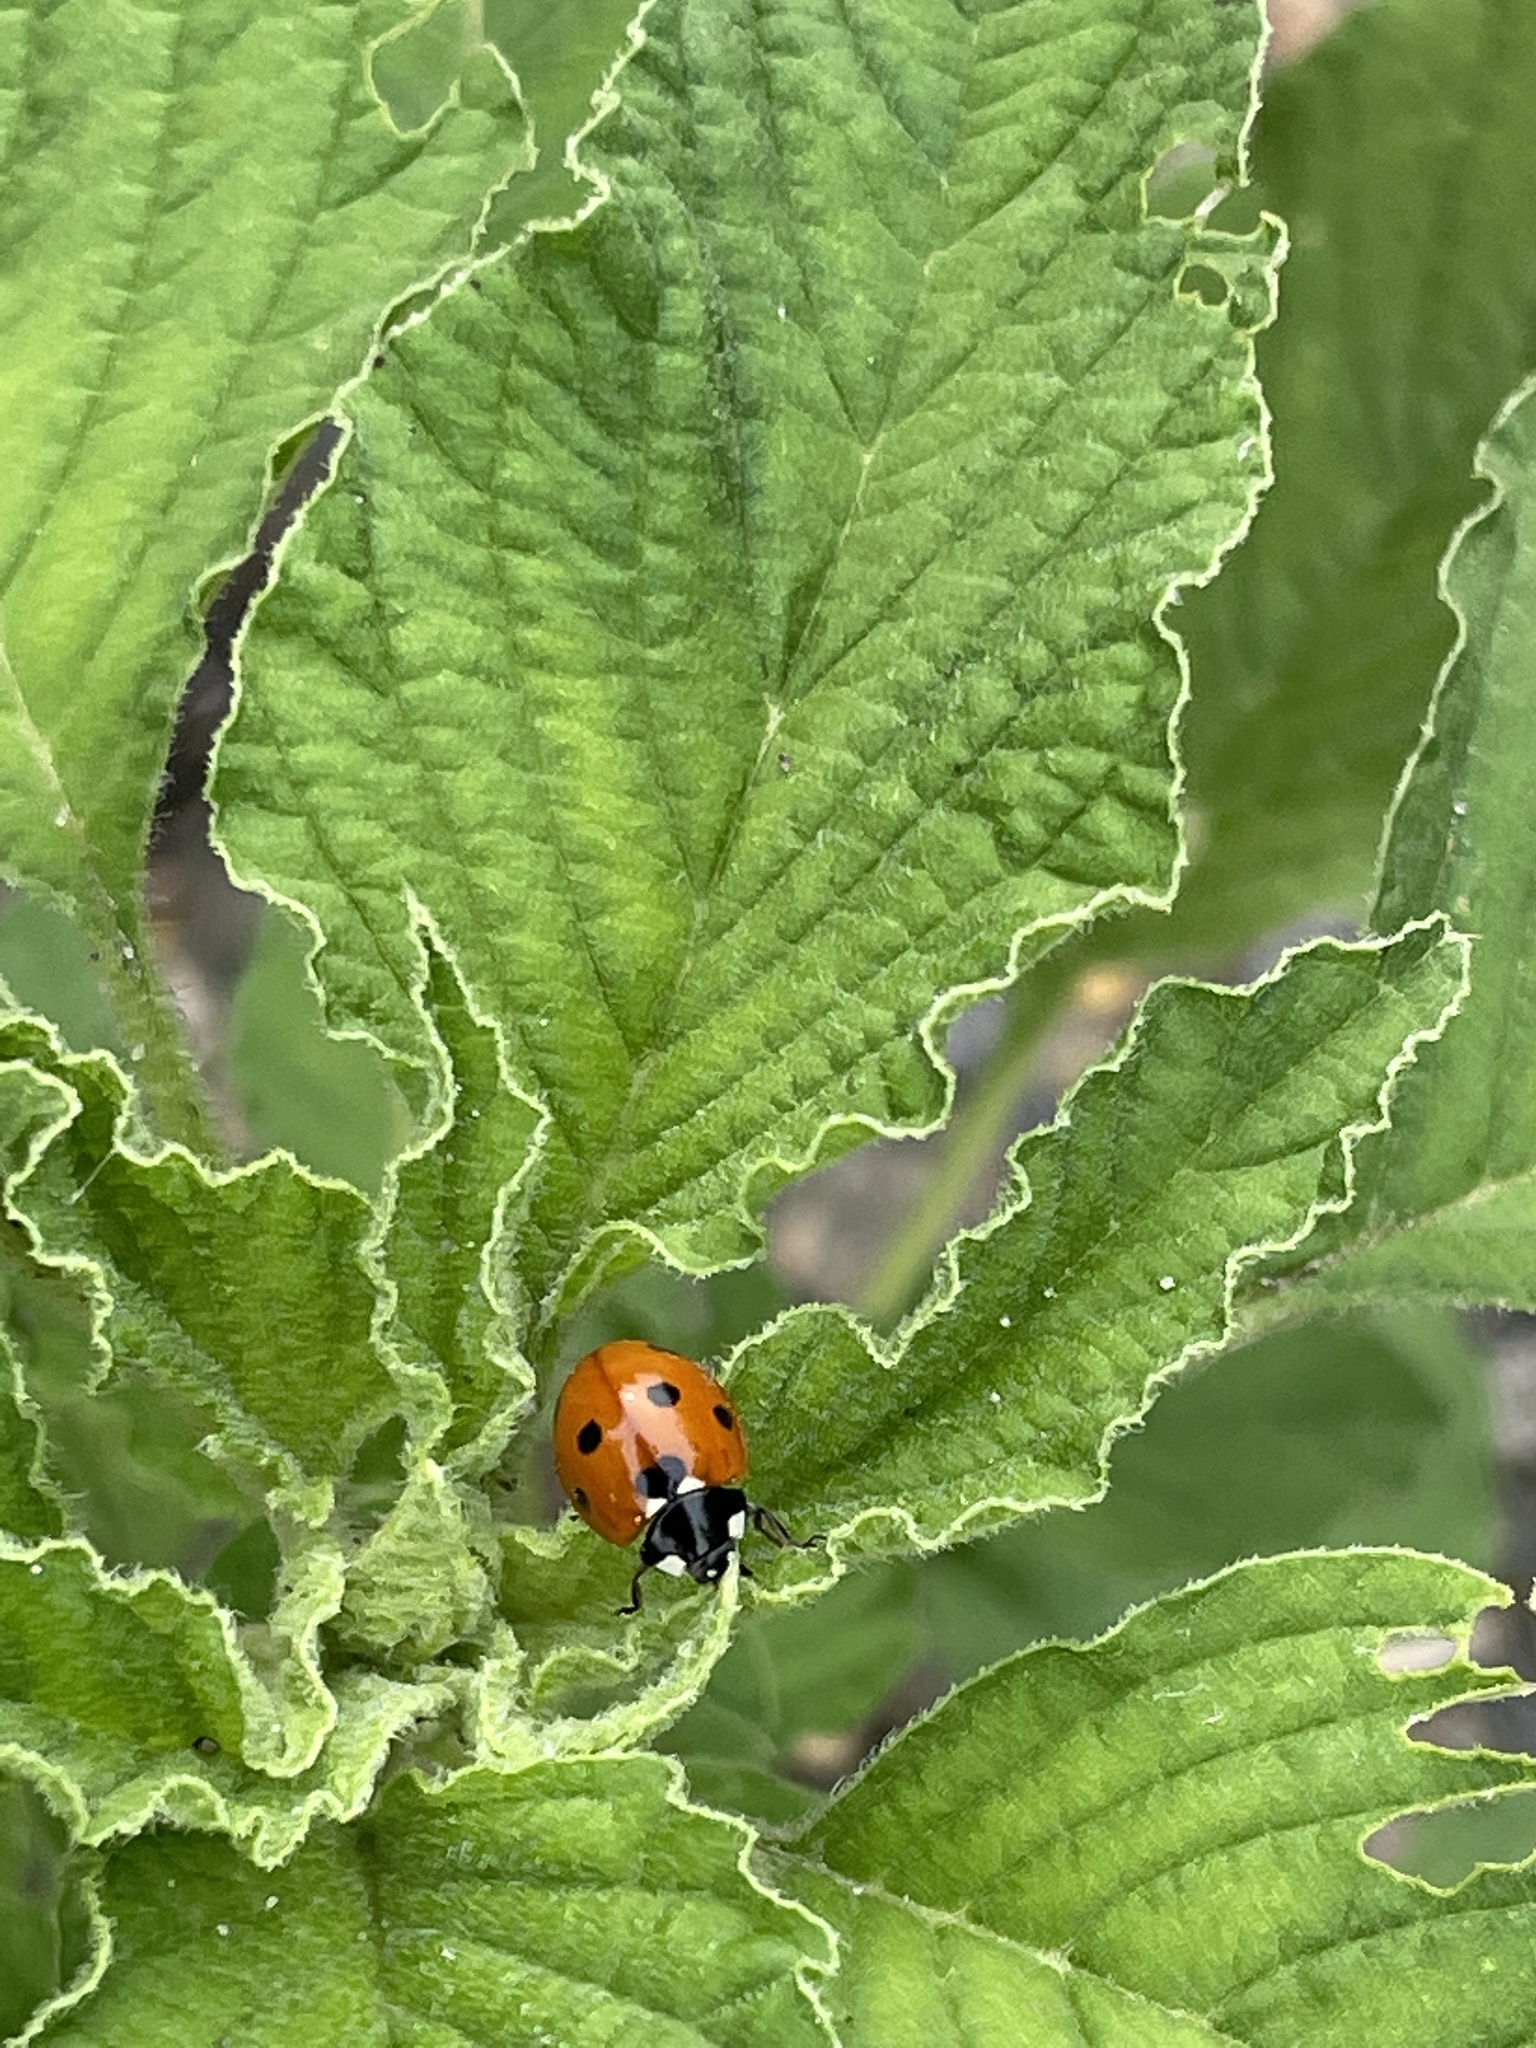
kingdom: Animalia
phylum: Arthropoda
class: Insecta
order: Coleoptera
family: Coccinellidae
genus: Coccinella
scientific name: Coccinella septempunctata
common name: Sevenspotted lady beetle
